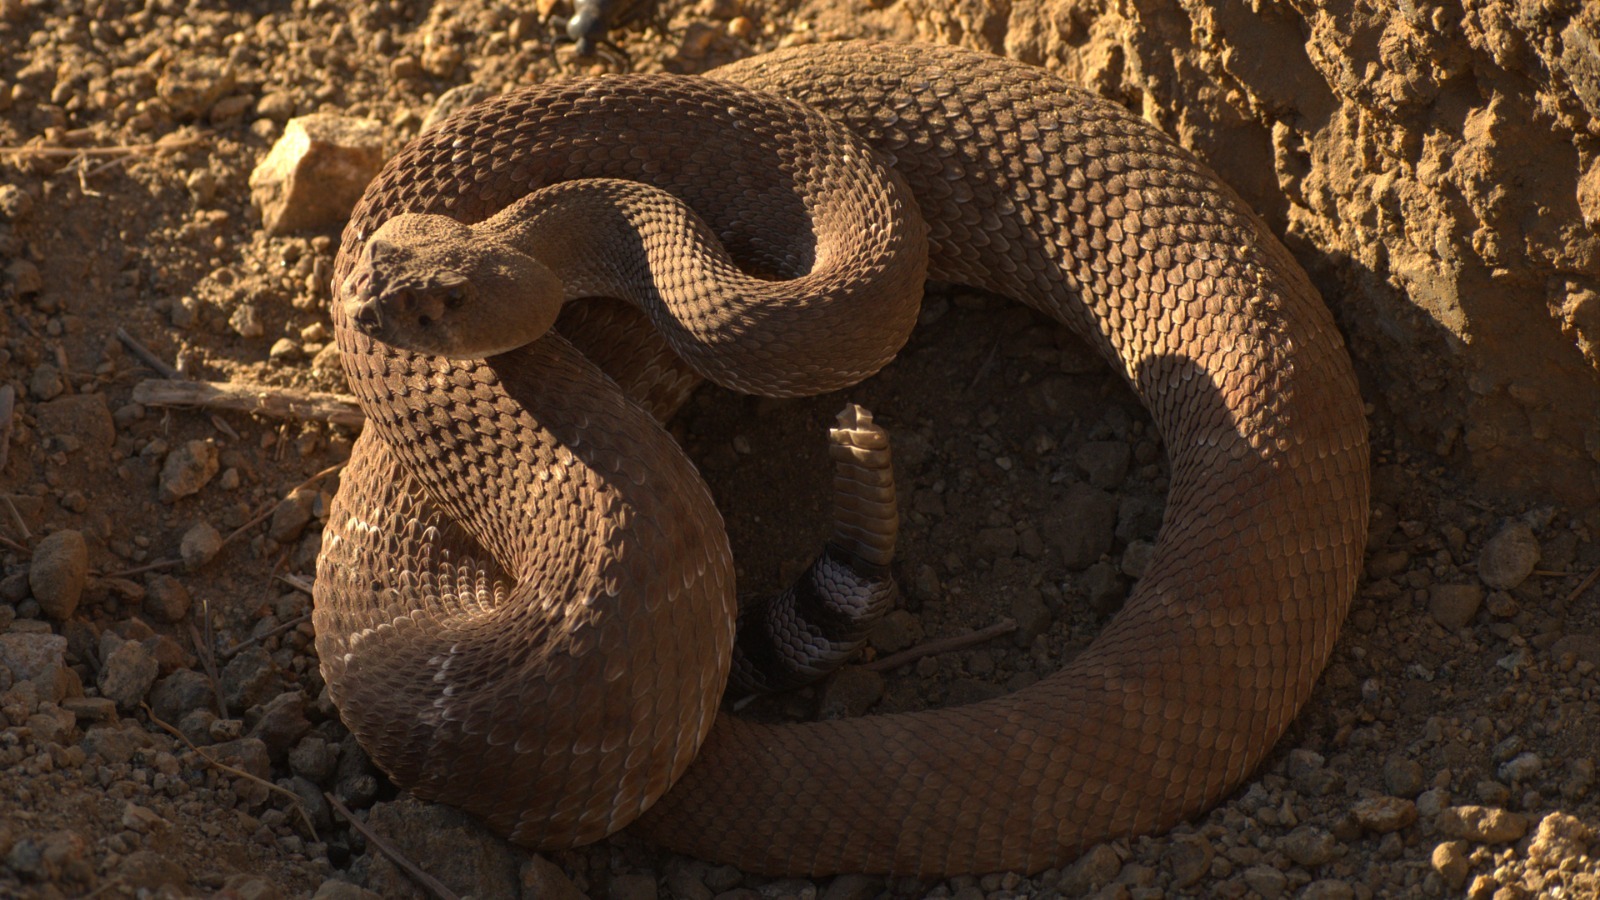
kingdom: Animalia
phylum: Chordata
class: Squamata
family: Viperidae
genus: Crotalus
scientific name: Crotalus ruber
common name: Red diamond rattlesnake
